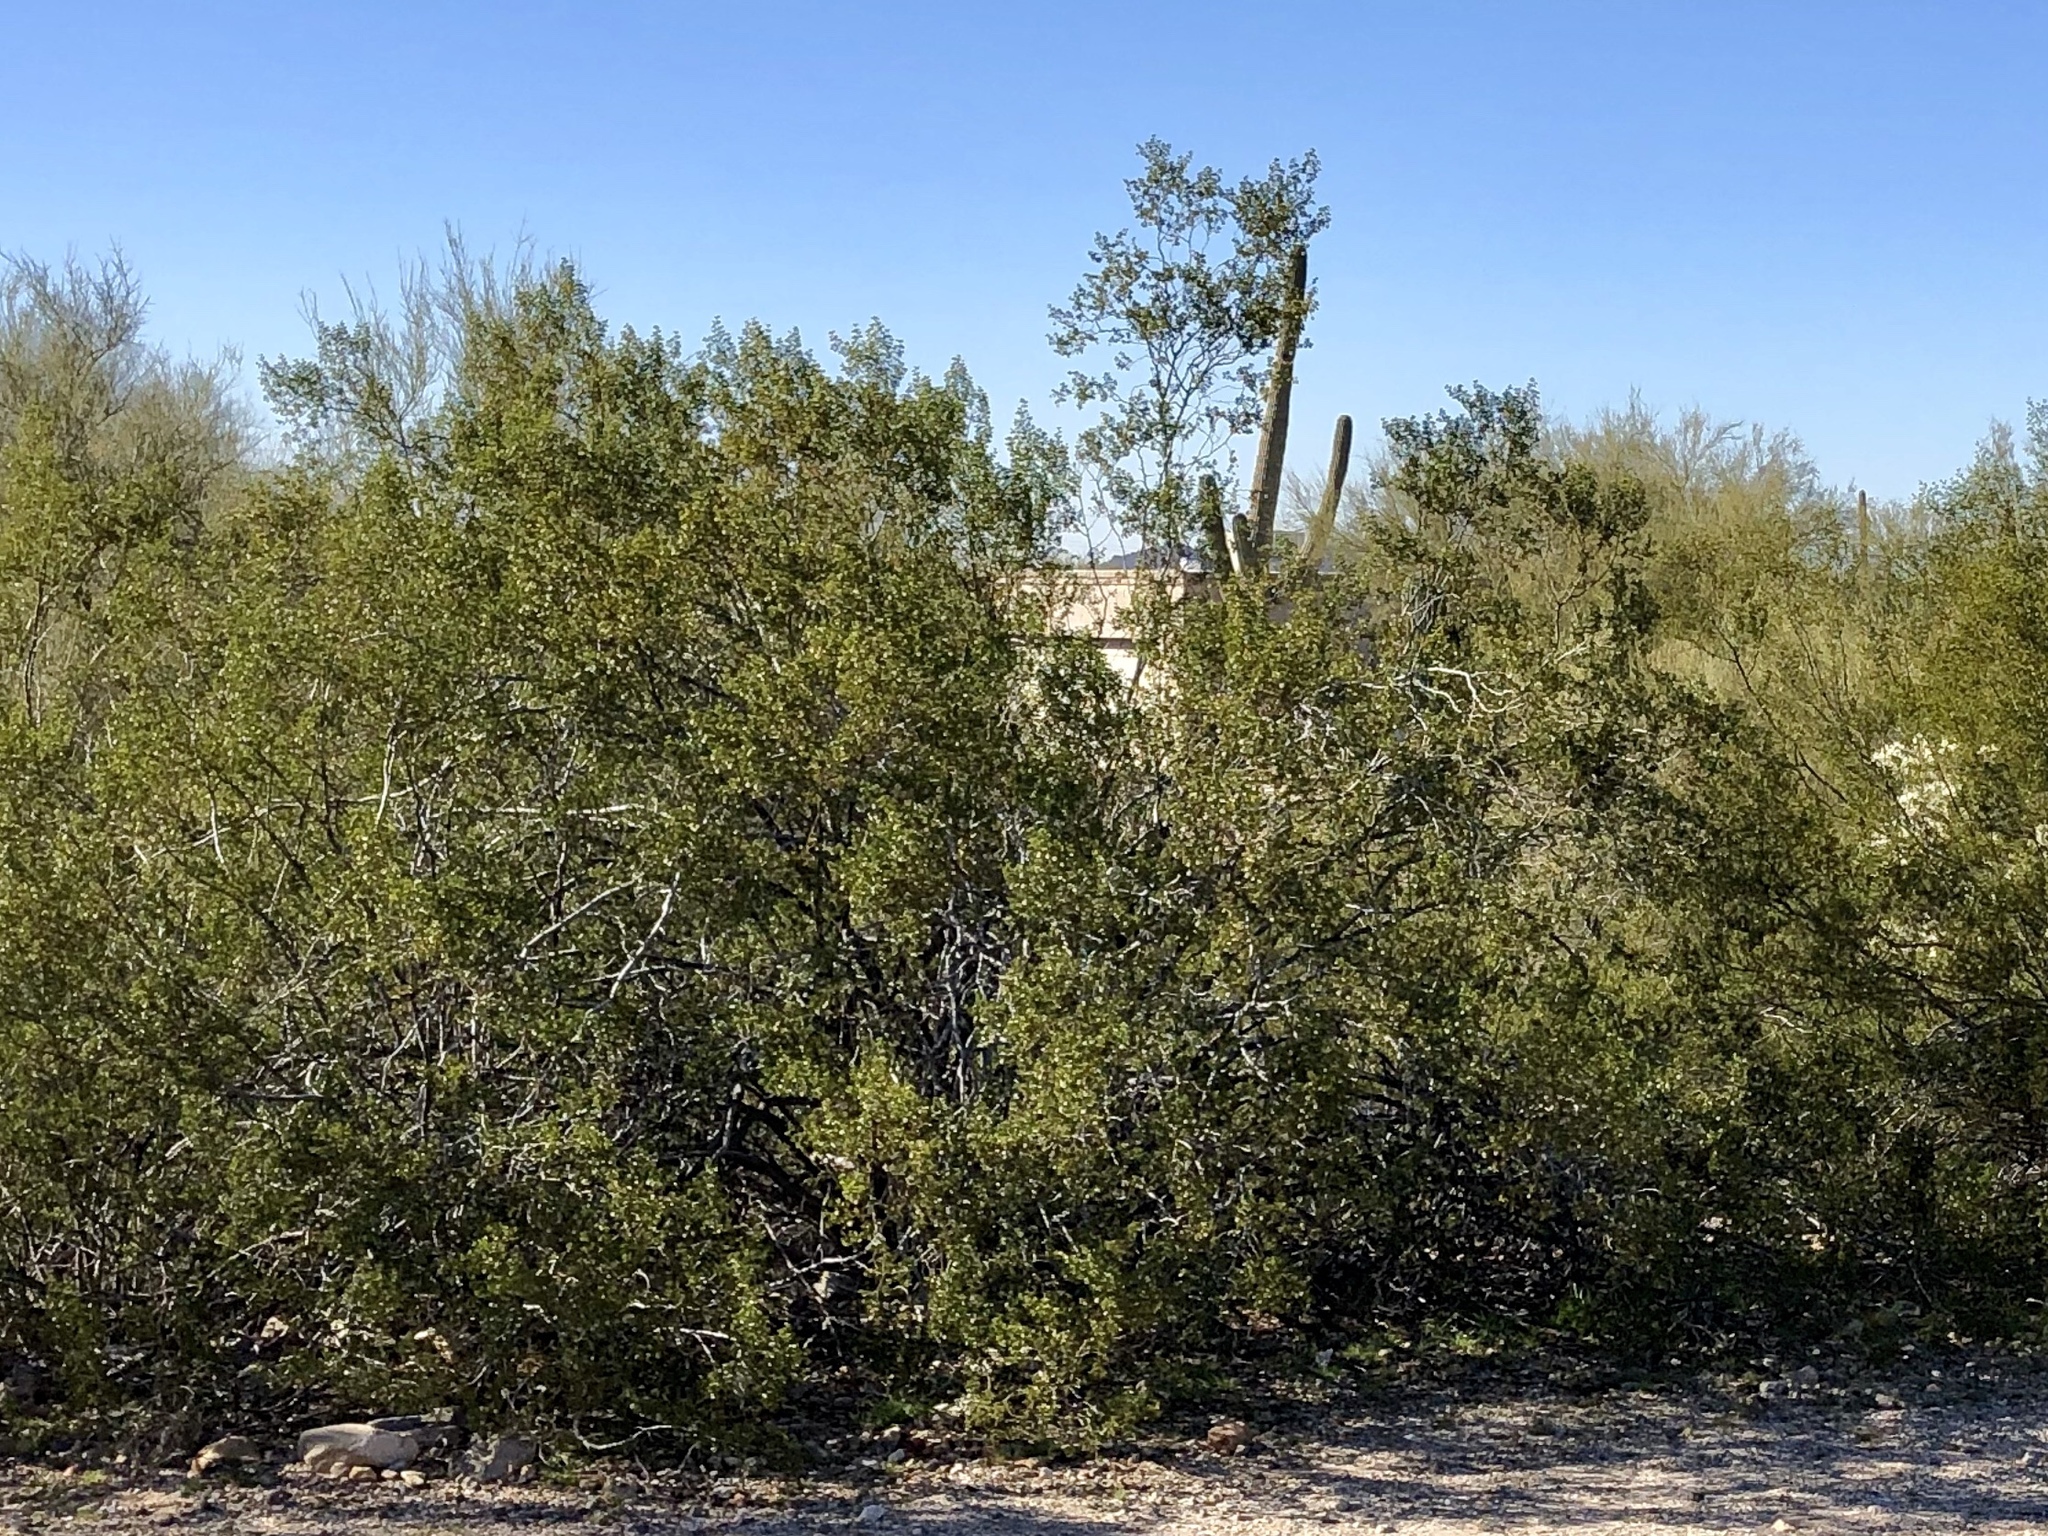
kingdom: Plantae
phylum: Tracheophyta
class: Magnoliopsida
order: Zygophyllales
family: Zygophyllaceae
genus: Larrea
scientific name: Larrea tridentata
